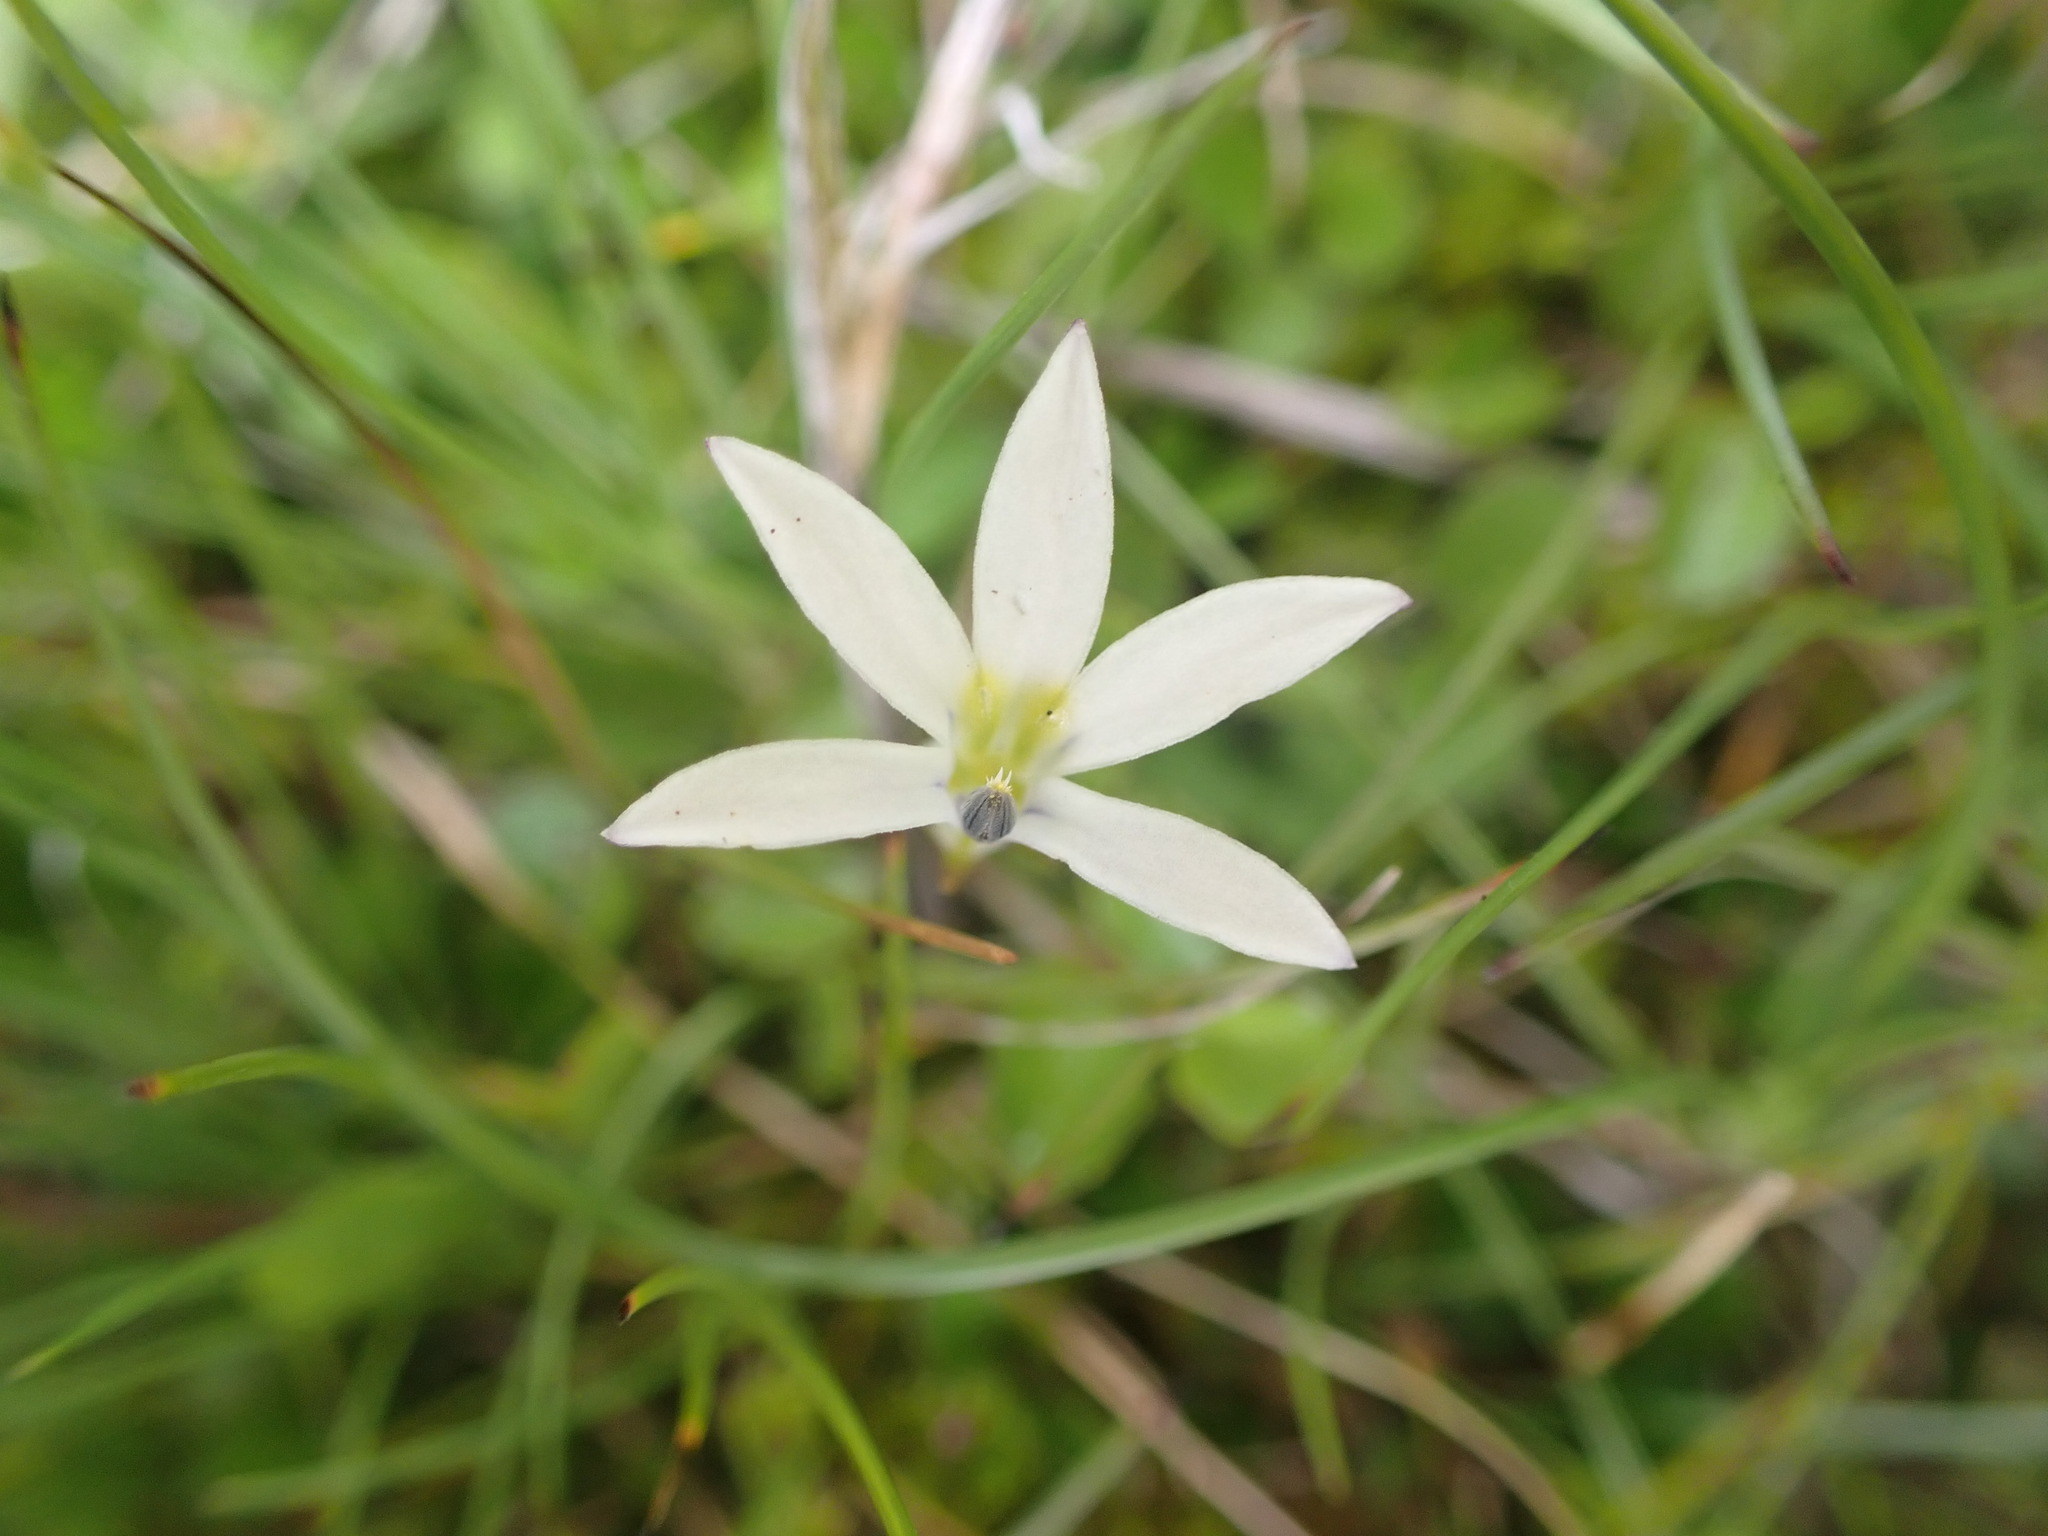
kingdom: Plantae
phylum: Tracheophyta
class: Magnoliopsida
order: Asterales
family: Campanulaceae
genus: Lobelia
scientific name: Lobelia angulata
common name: Lawn lobelia
